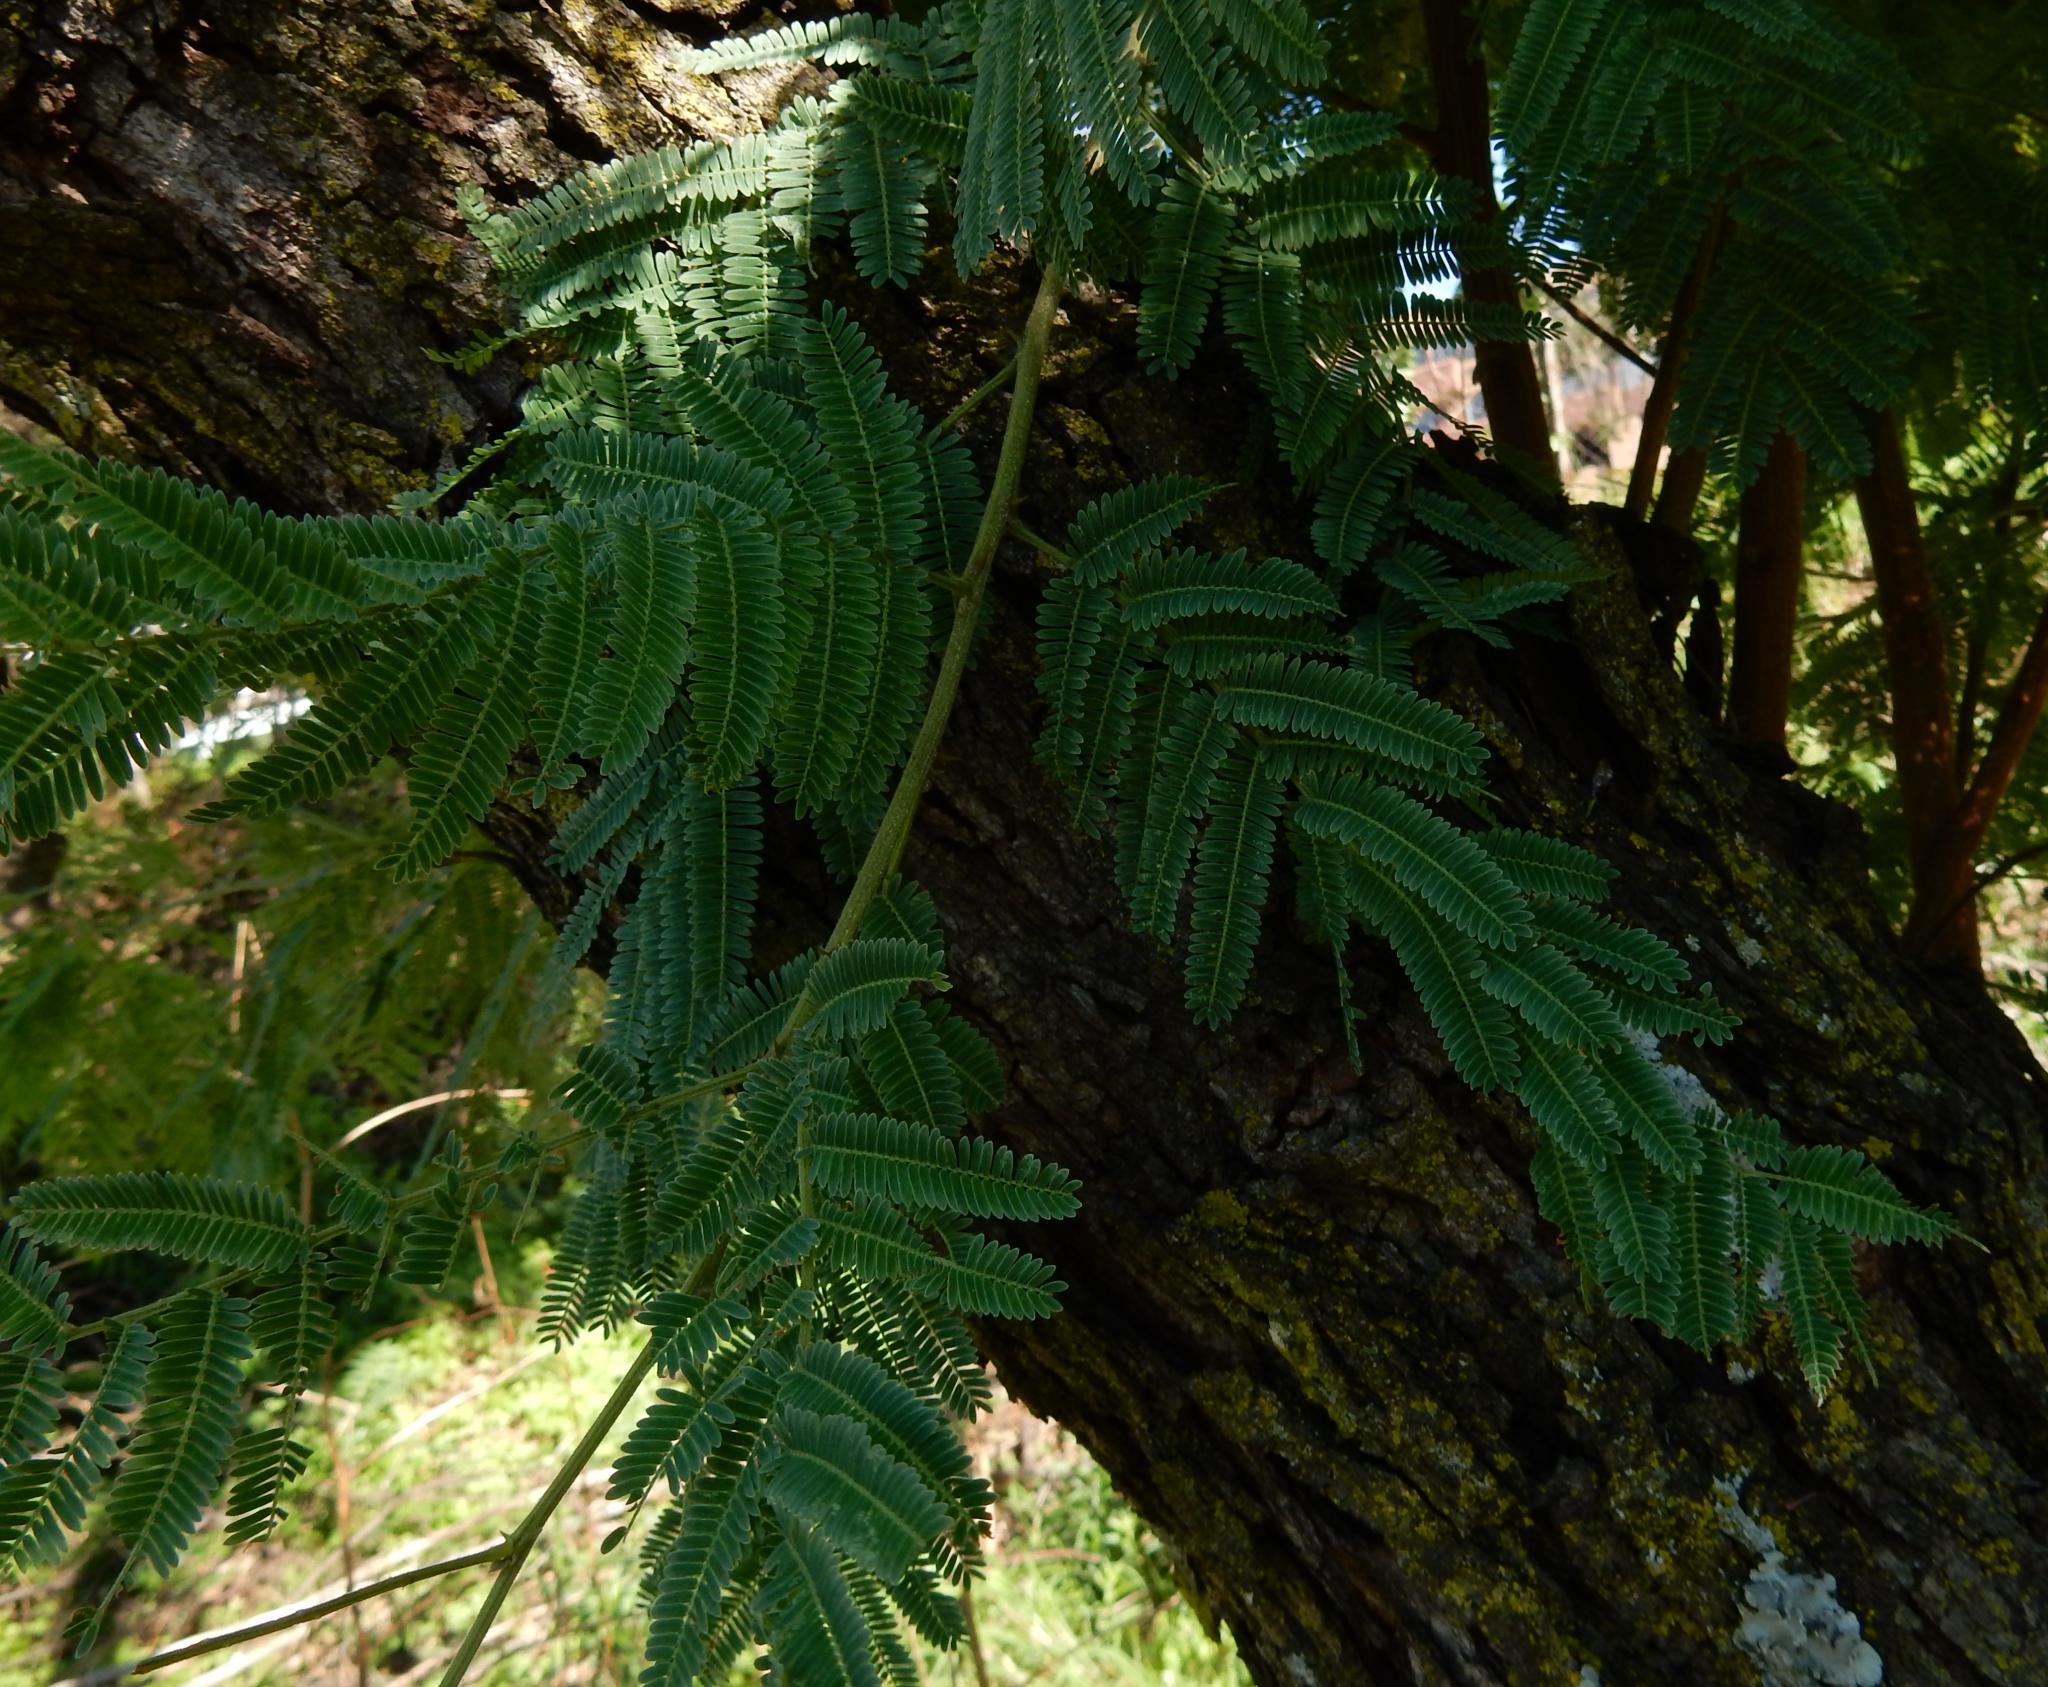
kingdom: Plantae
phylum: Tracheophyta
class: Magnoliopsida
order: Fabales
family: Fabaceae
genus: Senegalia
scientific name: Senegalia caffra
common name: Cat thorn
